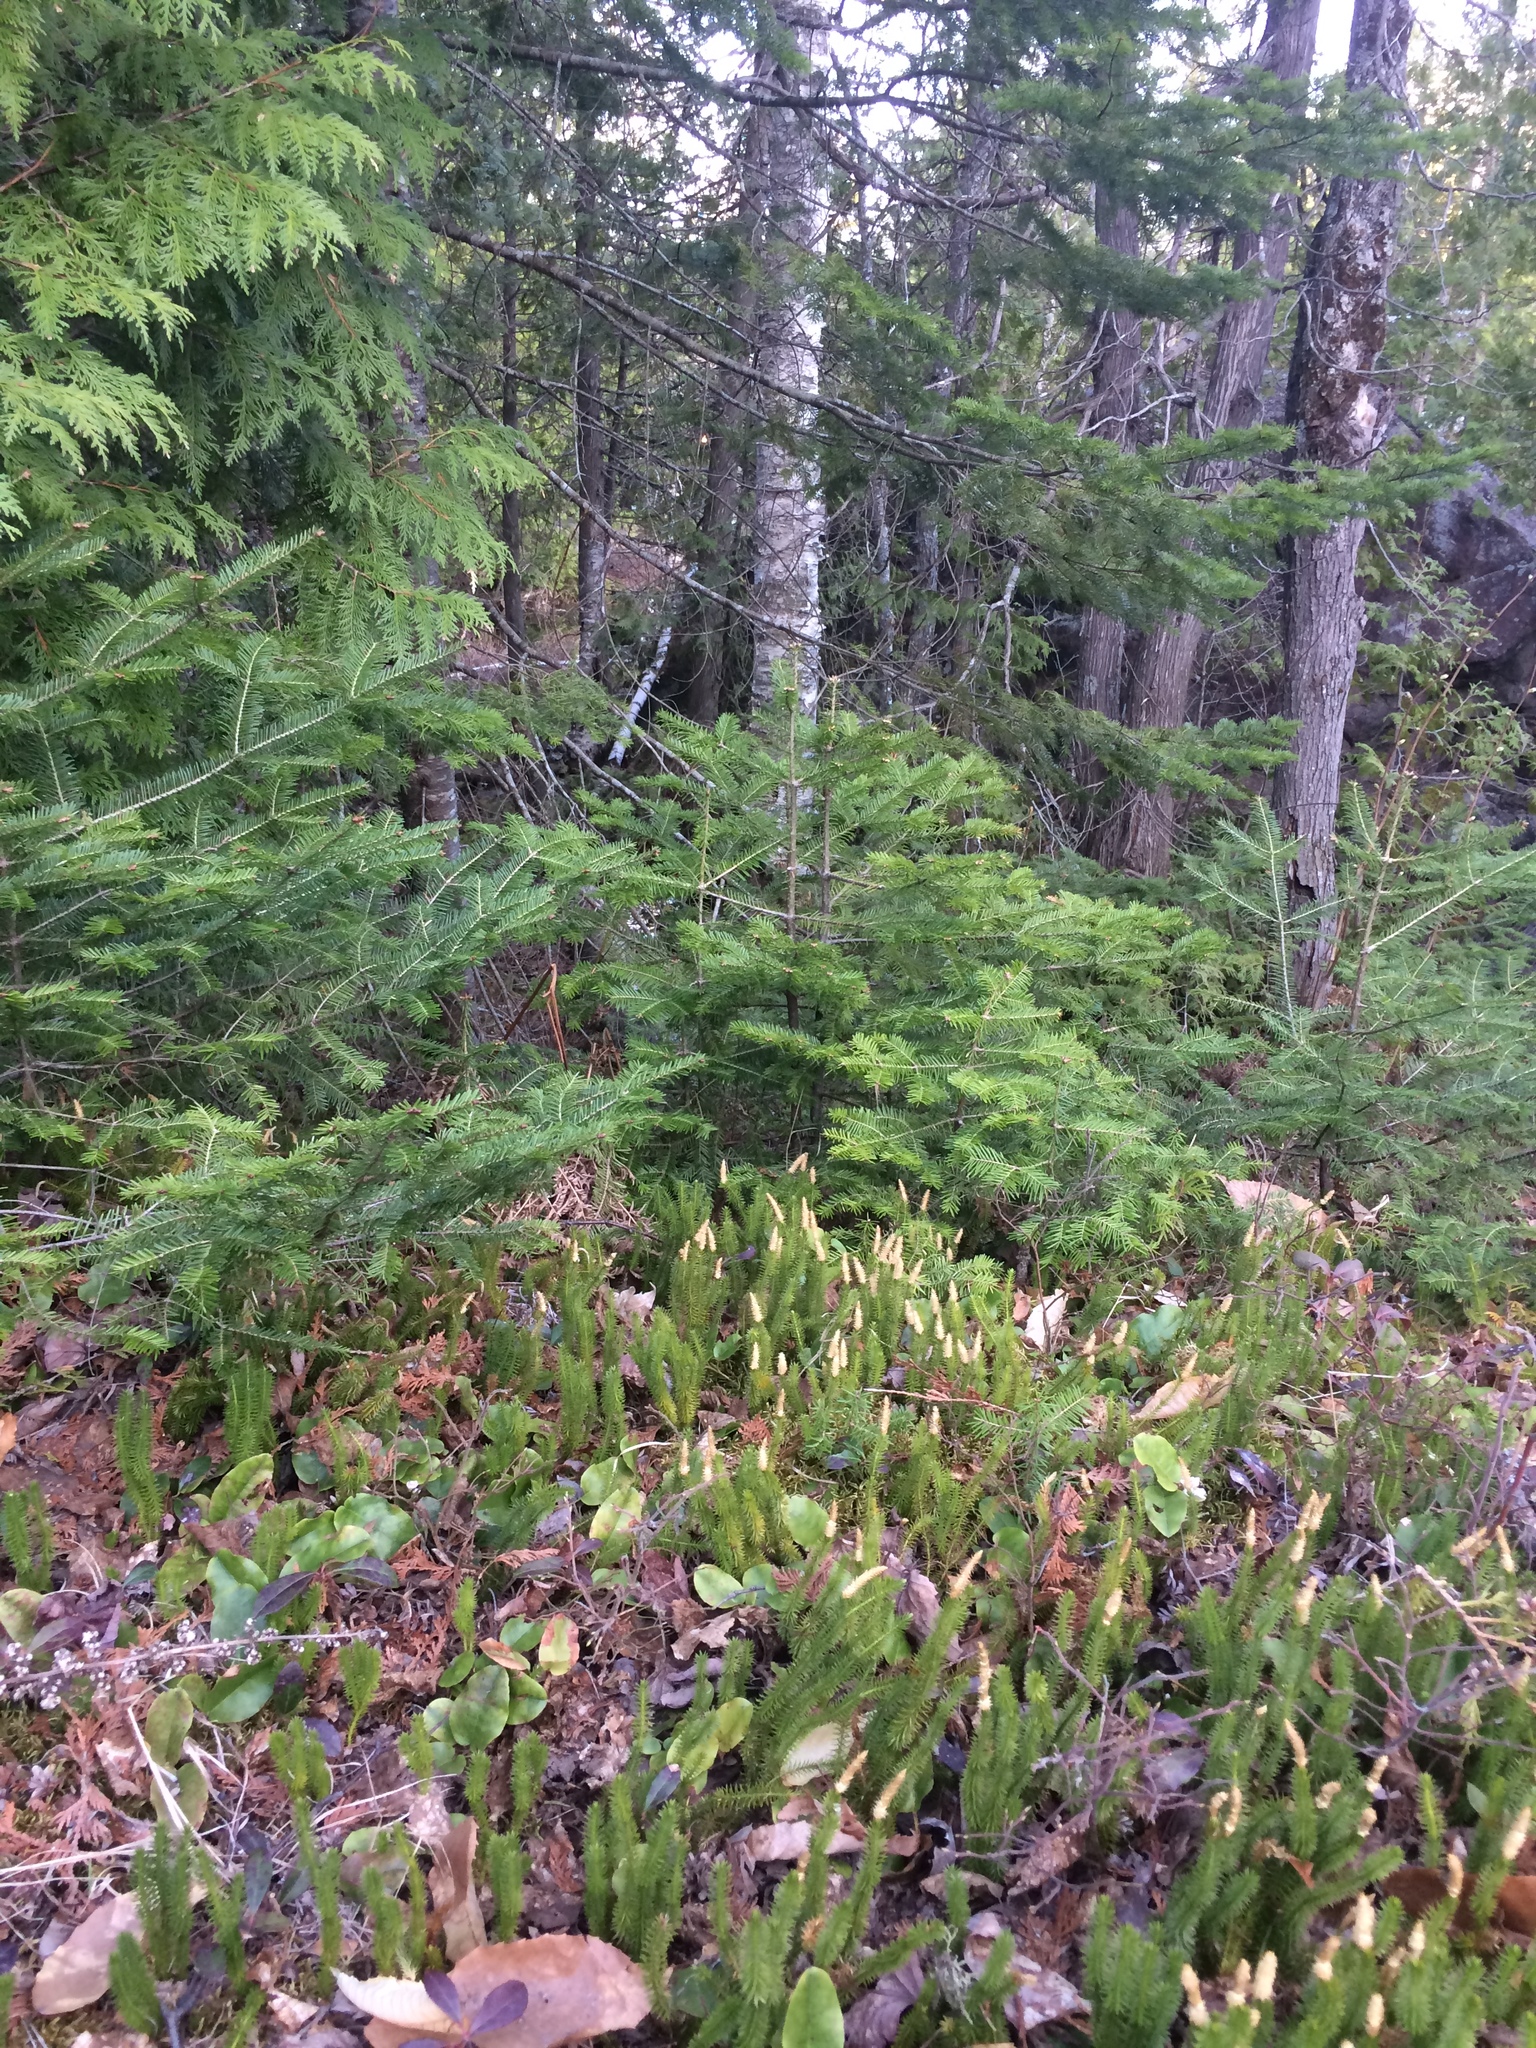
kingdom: Plantae
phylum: Tracheophyta
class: Lycopodiopsida
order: Lycopodiales
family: Lycopodiaceae
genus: Spinulum
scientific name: Spinulum annotinum
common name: Interrupted club-moss
